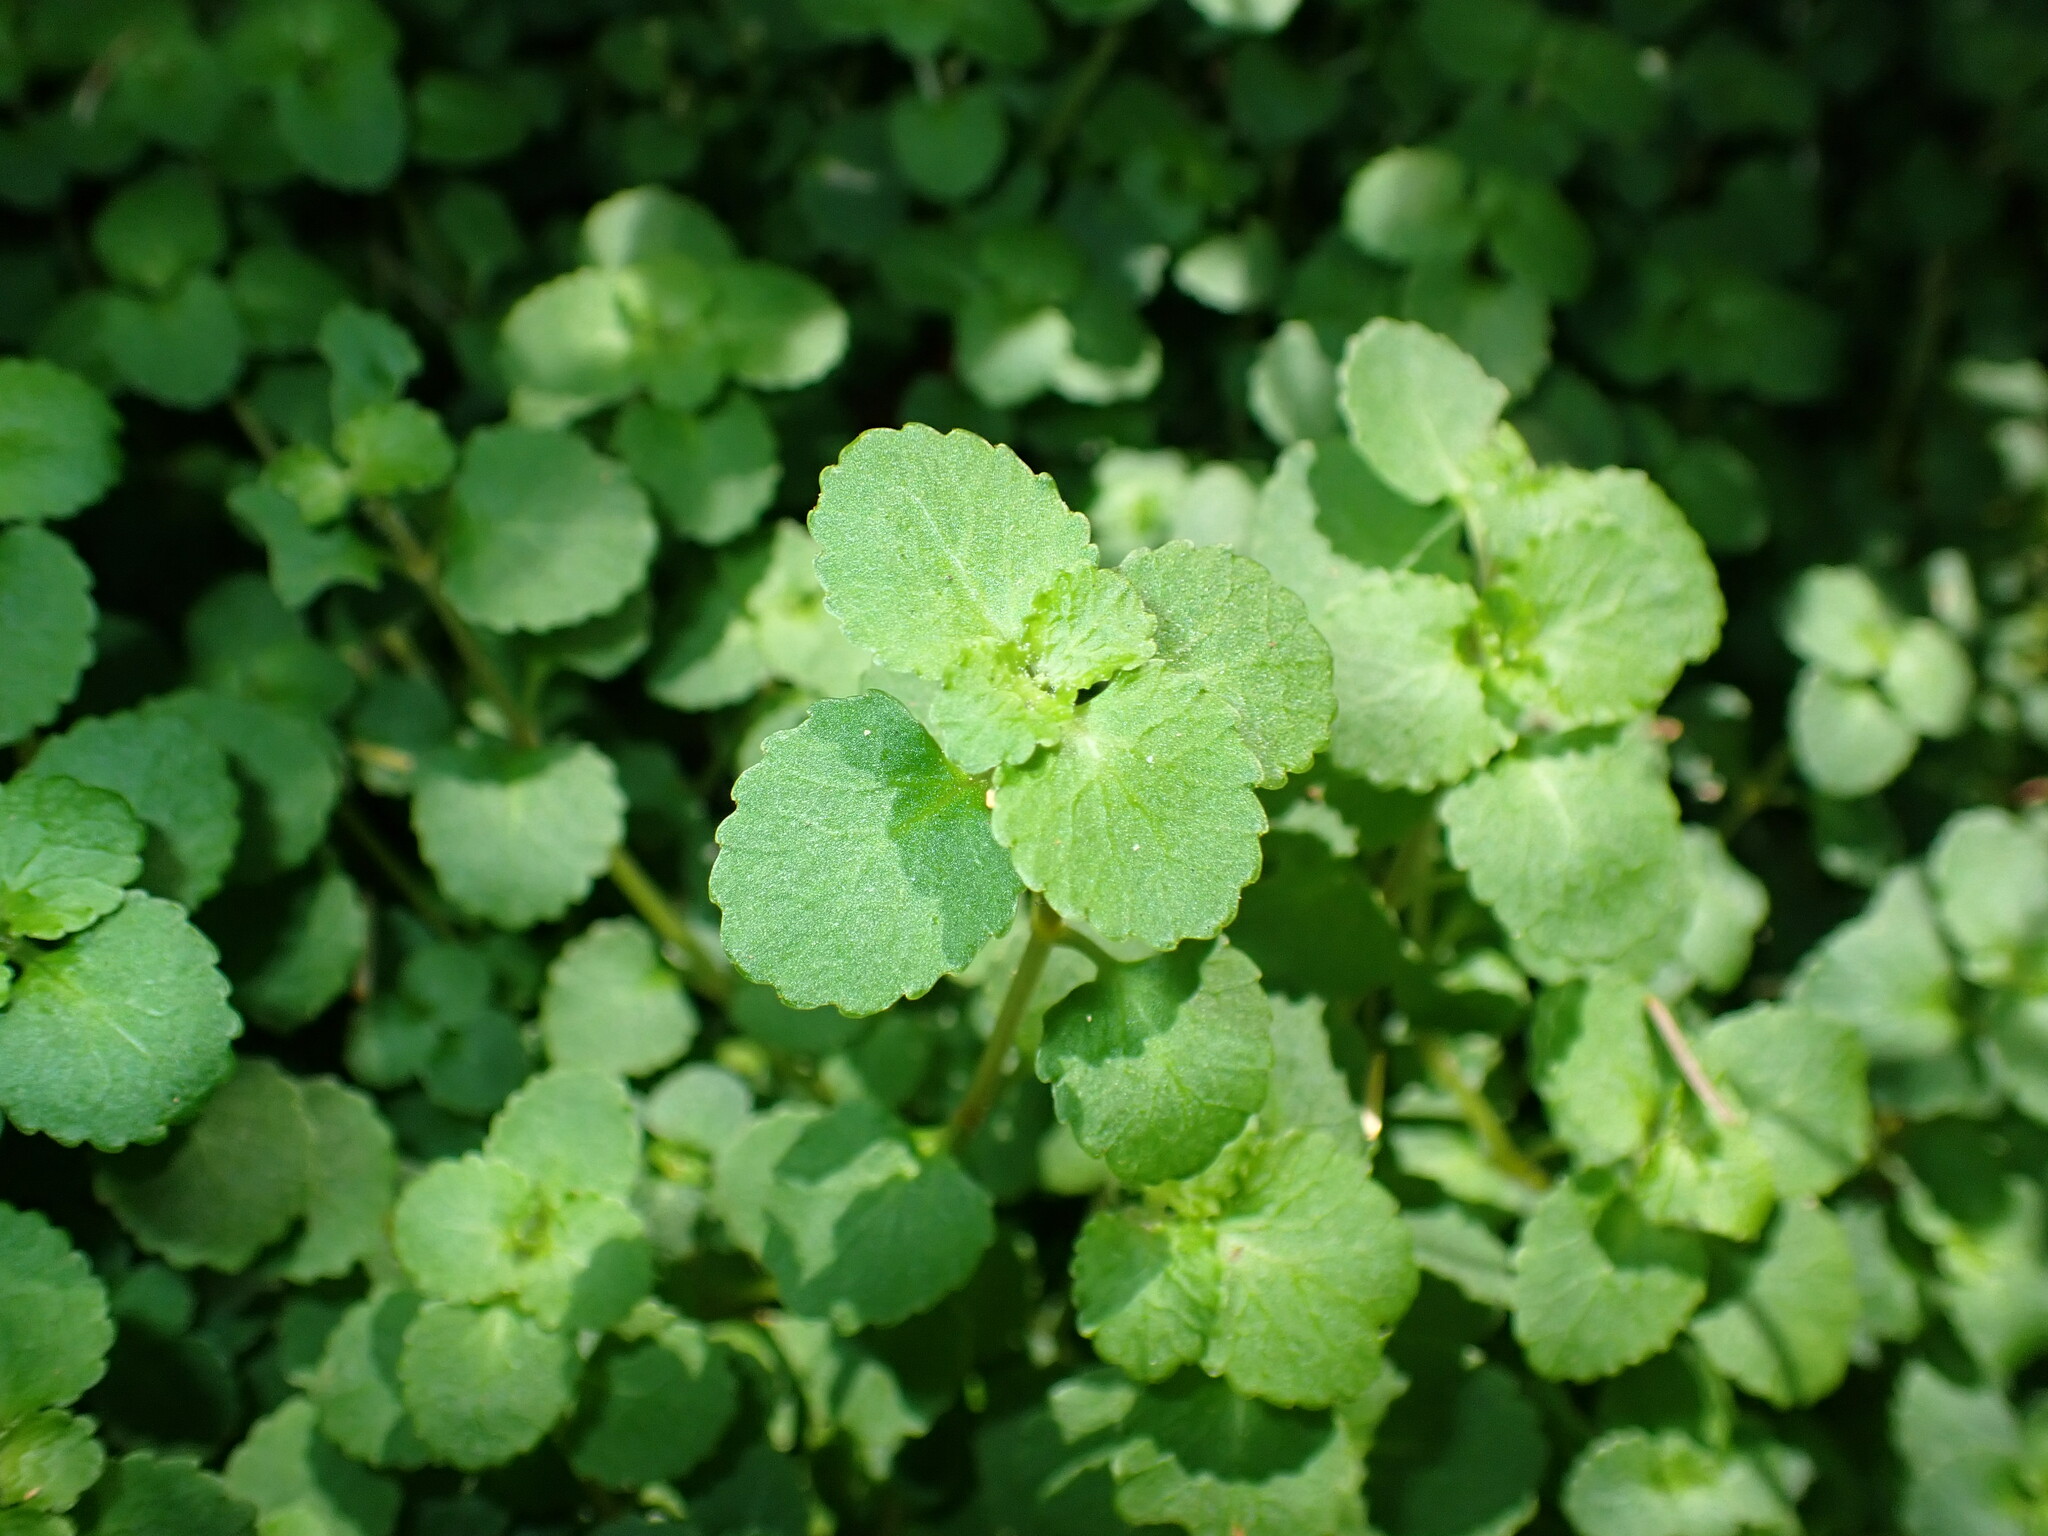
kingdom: Plantae
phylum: Tracheophyta
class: Magnoliopsida
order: Saxifragales
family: Saxifragaceae
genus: Chrysosplenium
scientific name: Chrysosplenium glechomifolium
